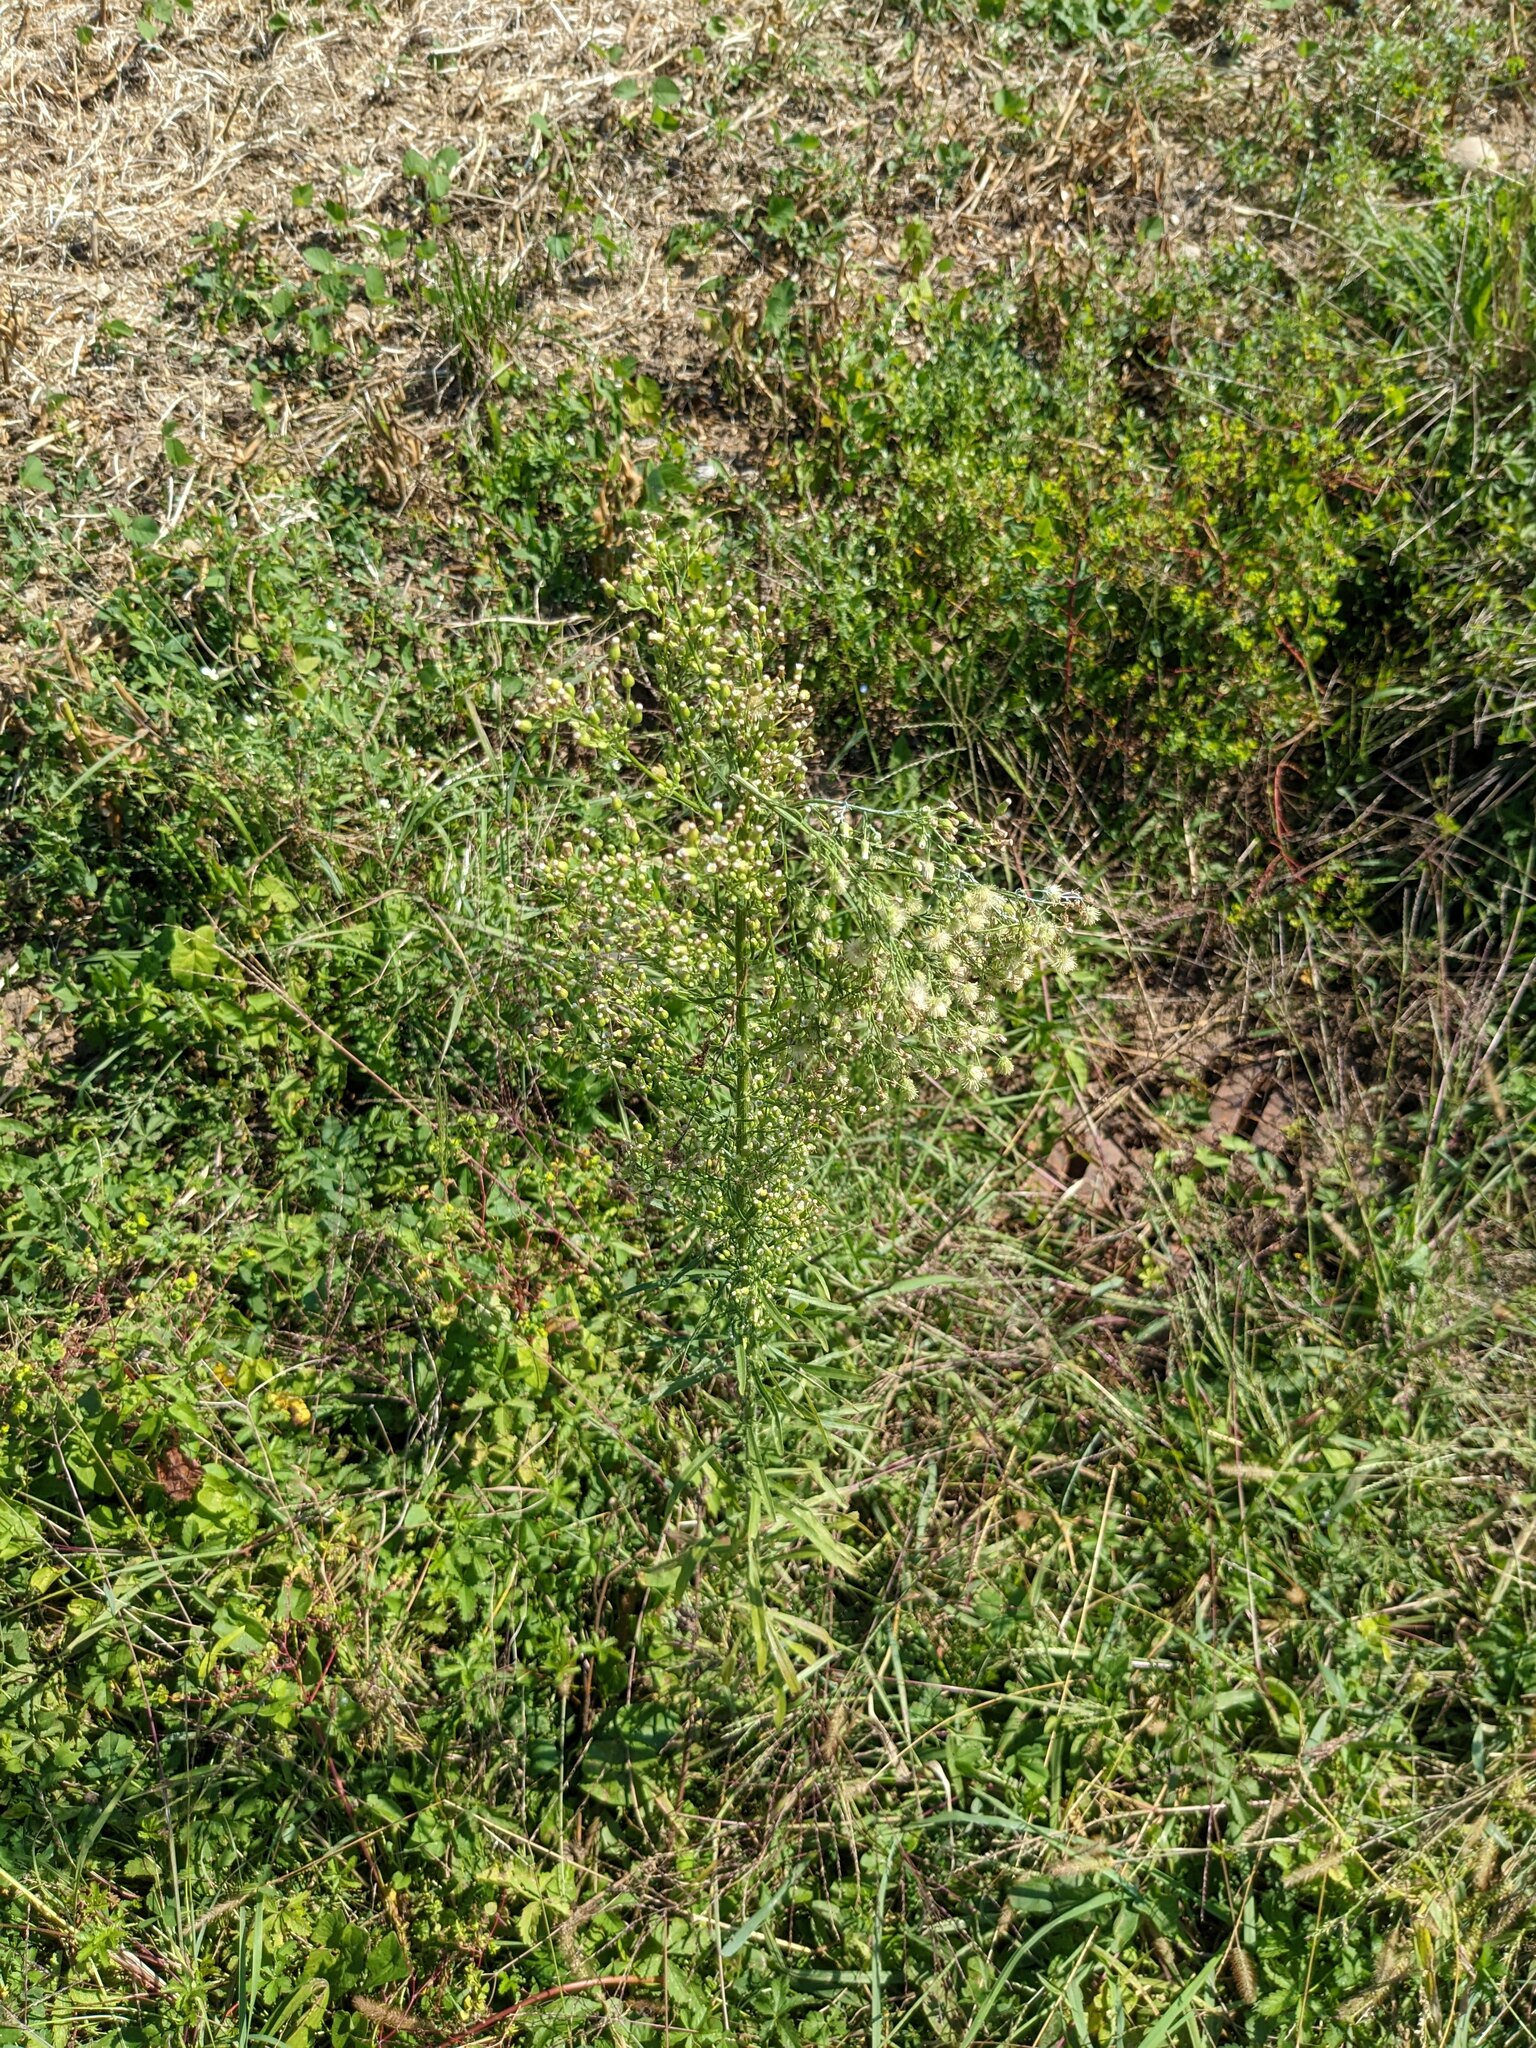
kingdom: Plantae
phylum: Tracheophyta
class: Magnoliopsida
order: Asterales
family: Asteraceae
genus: Erigeron
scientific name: Erigeron canadensis
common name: Canadian fleabane
